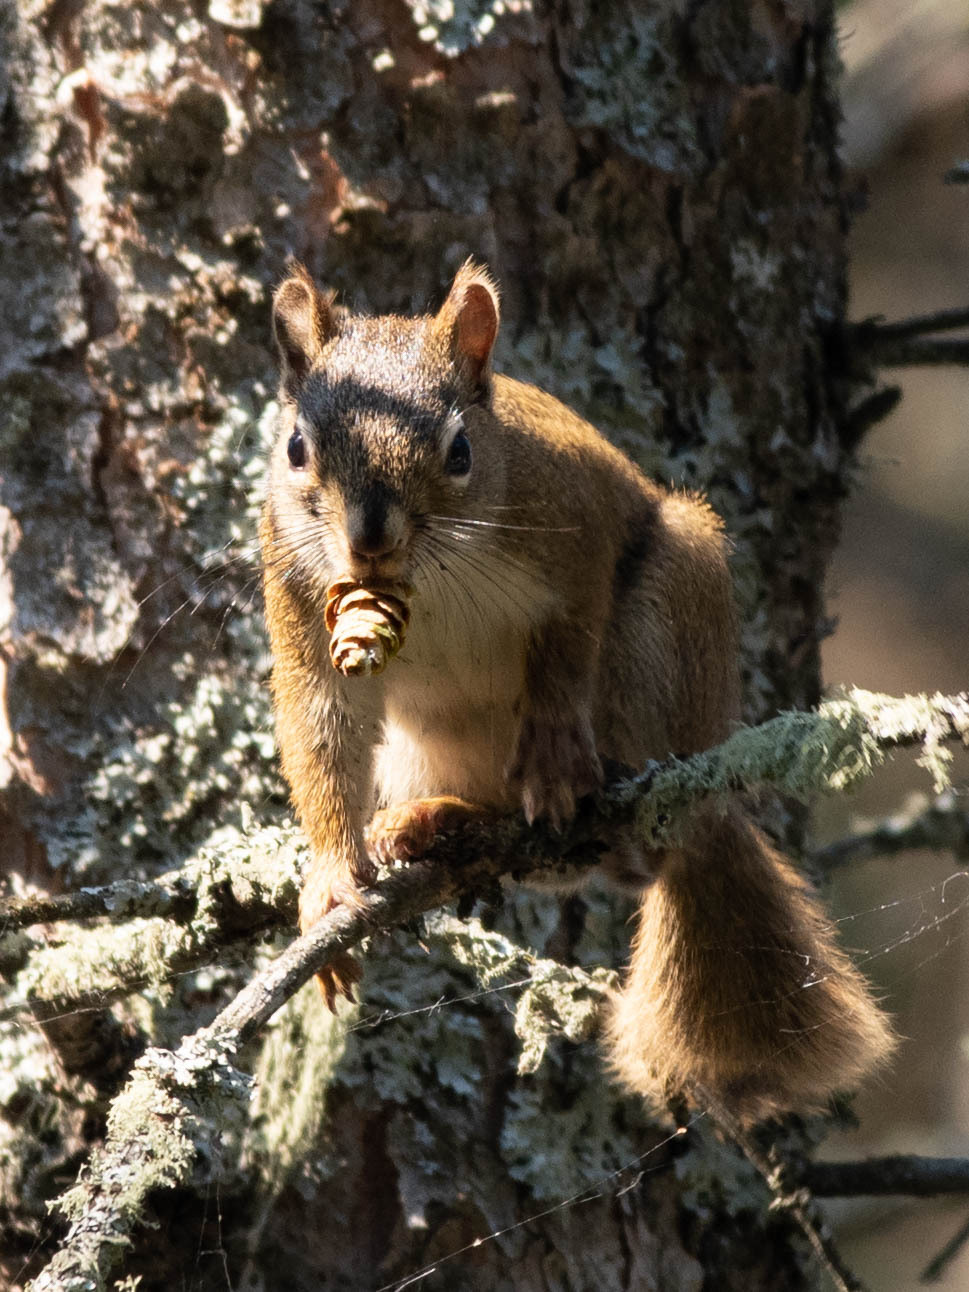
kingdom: Animalia
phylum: Chordata
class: Mammalia
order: Rodentia
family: Sciuridae
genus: Tamiasciurus
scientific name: Tamiasciurus hudsonicus
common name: Red squirrel
